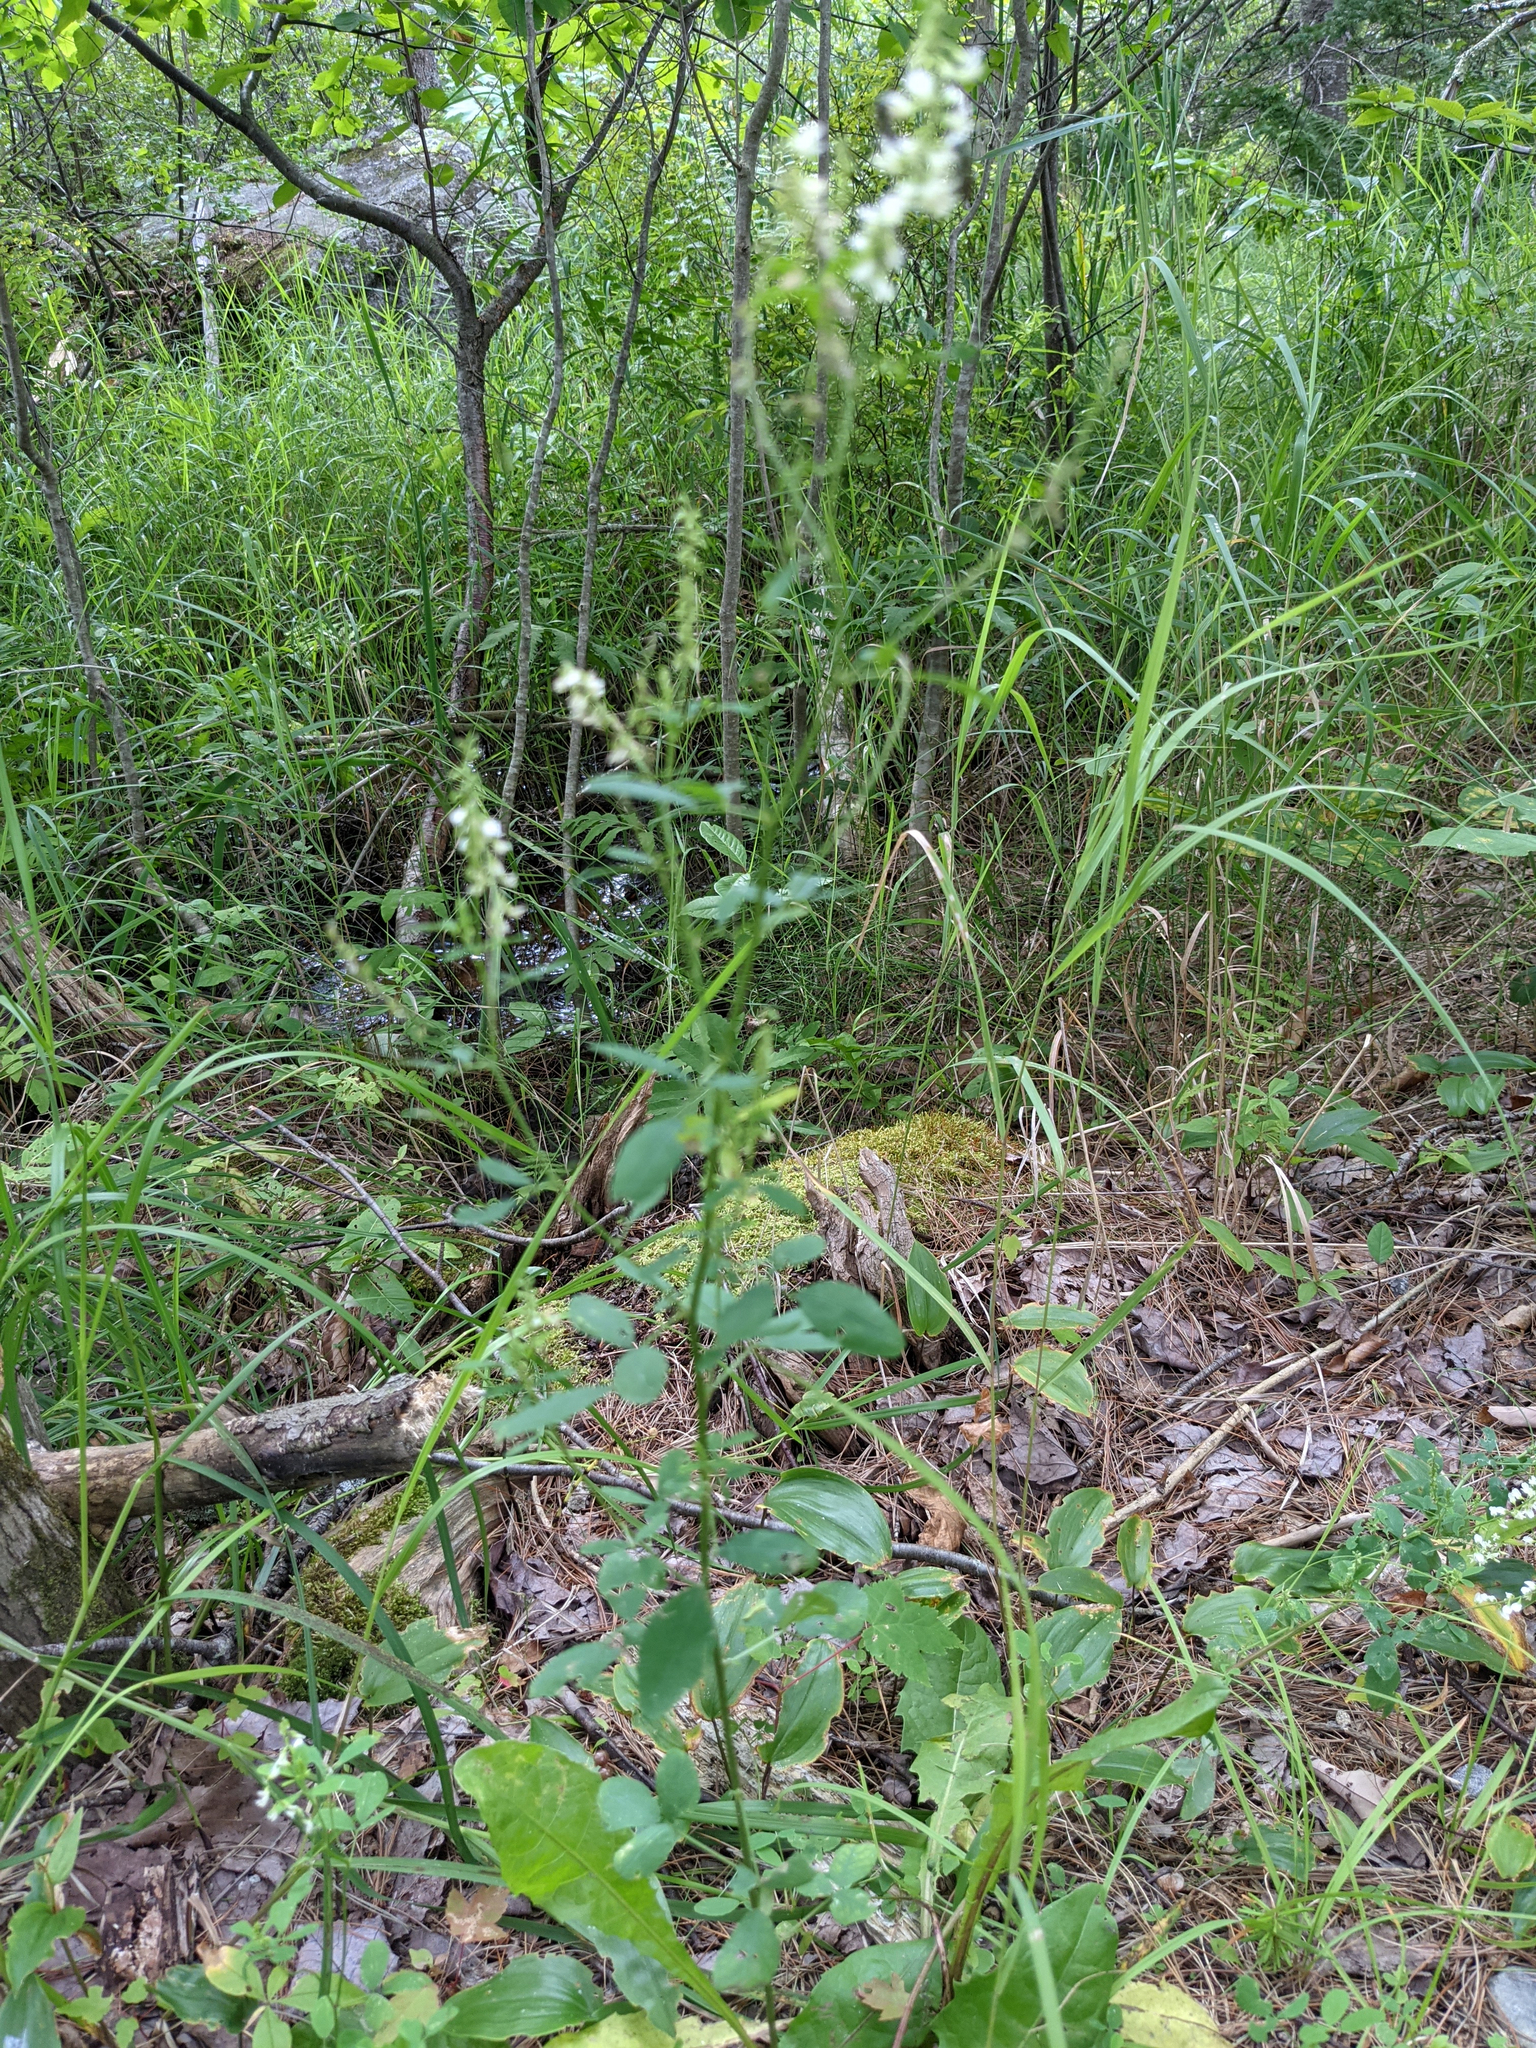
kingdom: Plantae
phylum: Tracheophyta
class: Magnoliopsida
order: Fabales
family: Fabaceae
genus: Melilotus
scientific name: Melilotus albus
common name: White melilot
